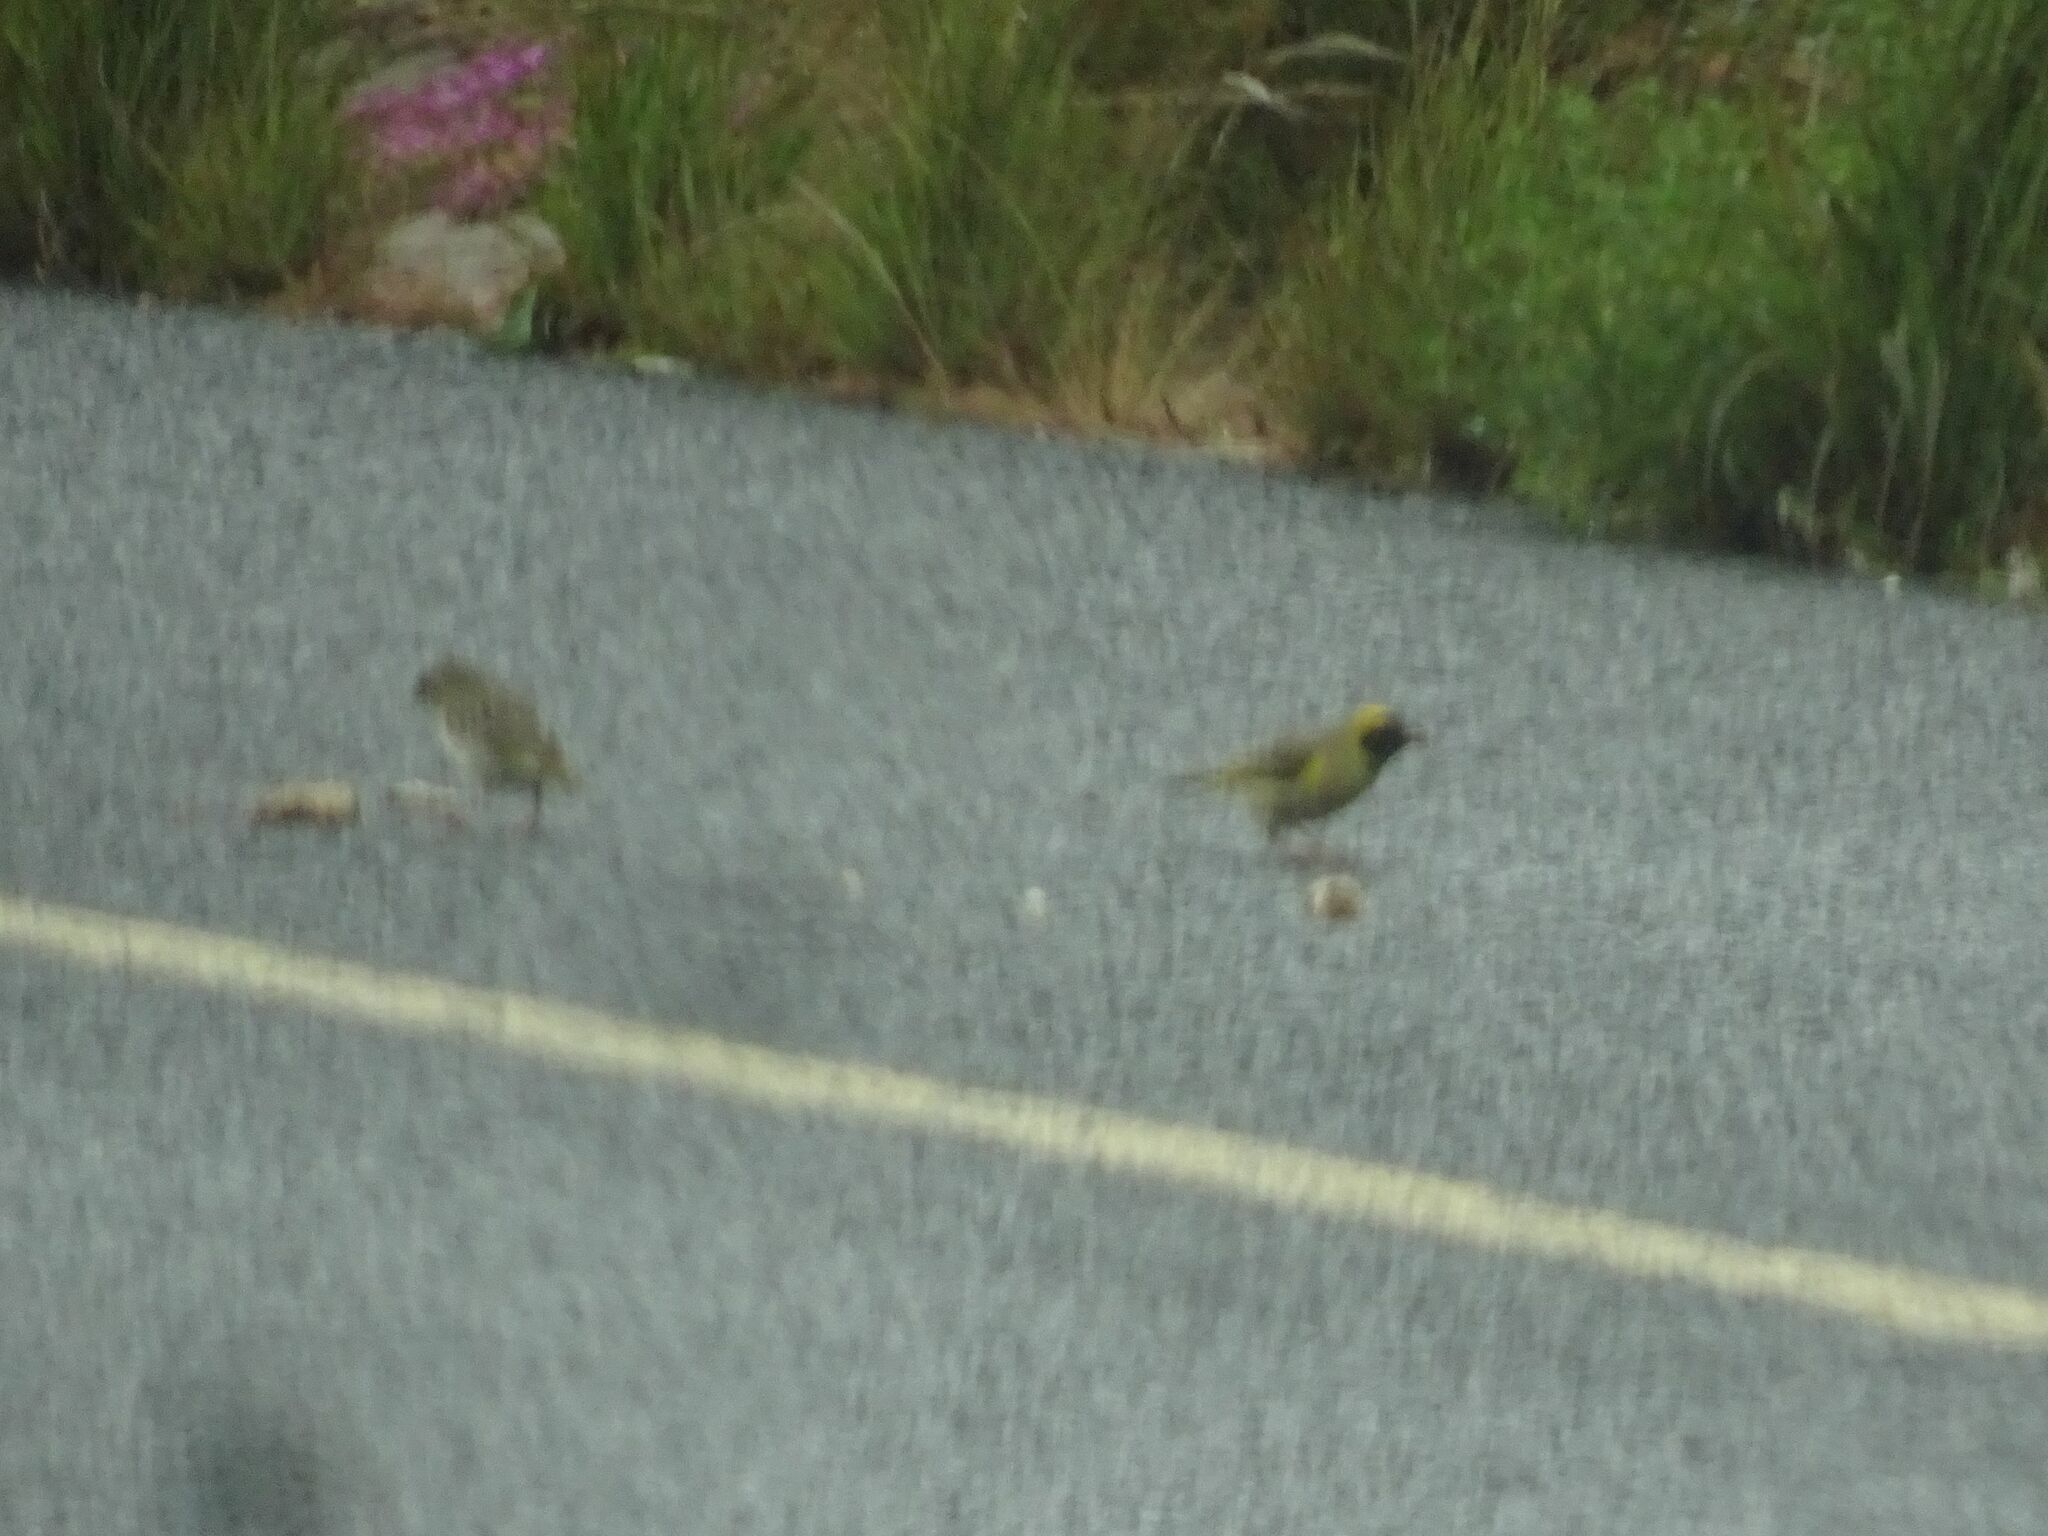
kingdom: Animalia
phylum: Chordata
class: Aves
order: Passeriformes
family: Ploceidae
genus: Ploceus
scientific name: Ploceus velatus
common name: Southern masked weaver
